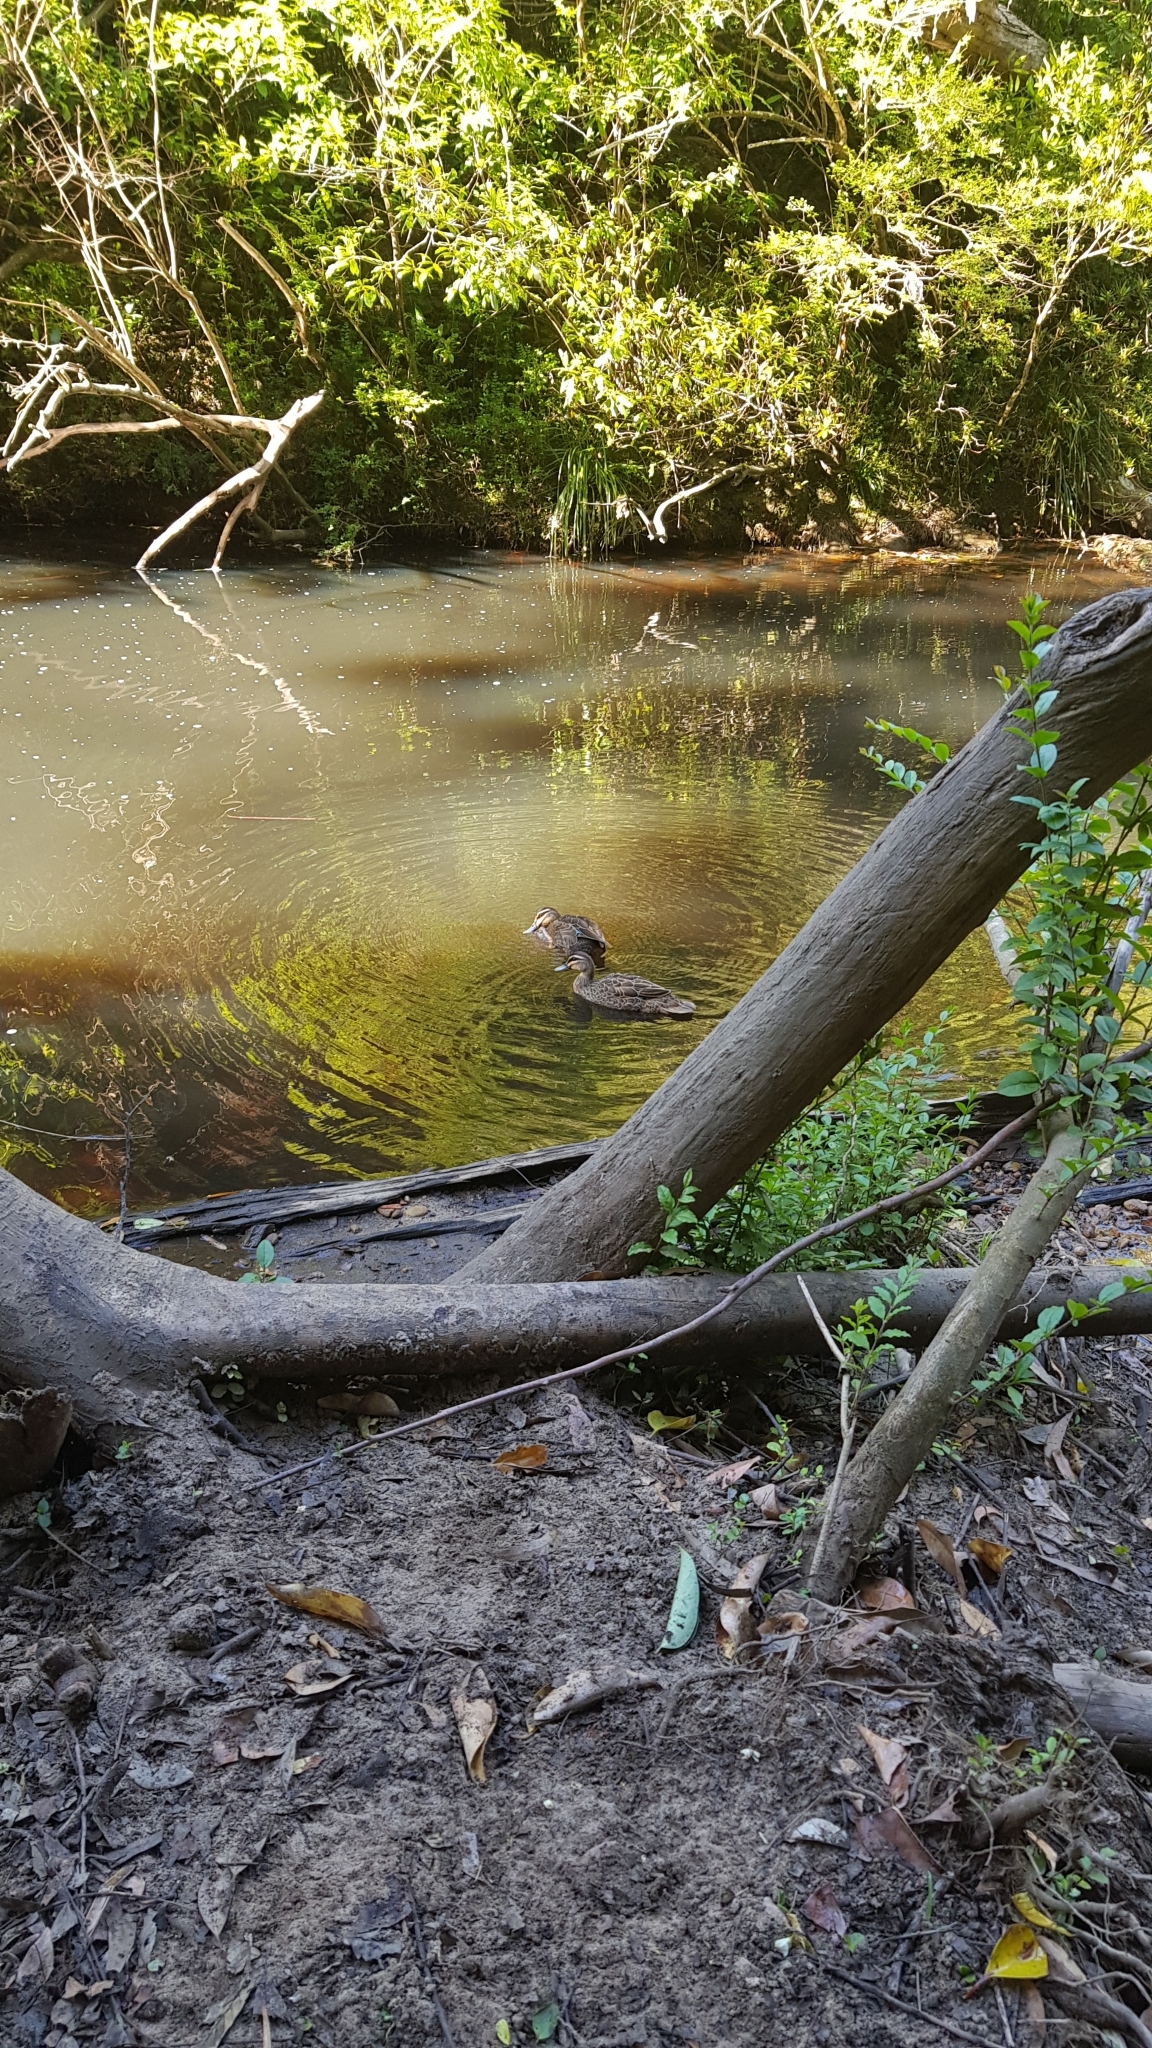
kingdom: Animalia
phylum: Chordata
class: Aves
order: Anseriformes
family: Anatidae
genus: Anas
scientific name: Anas superciliosa
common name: Pacific black duck
